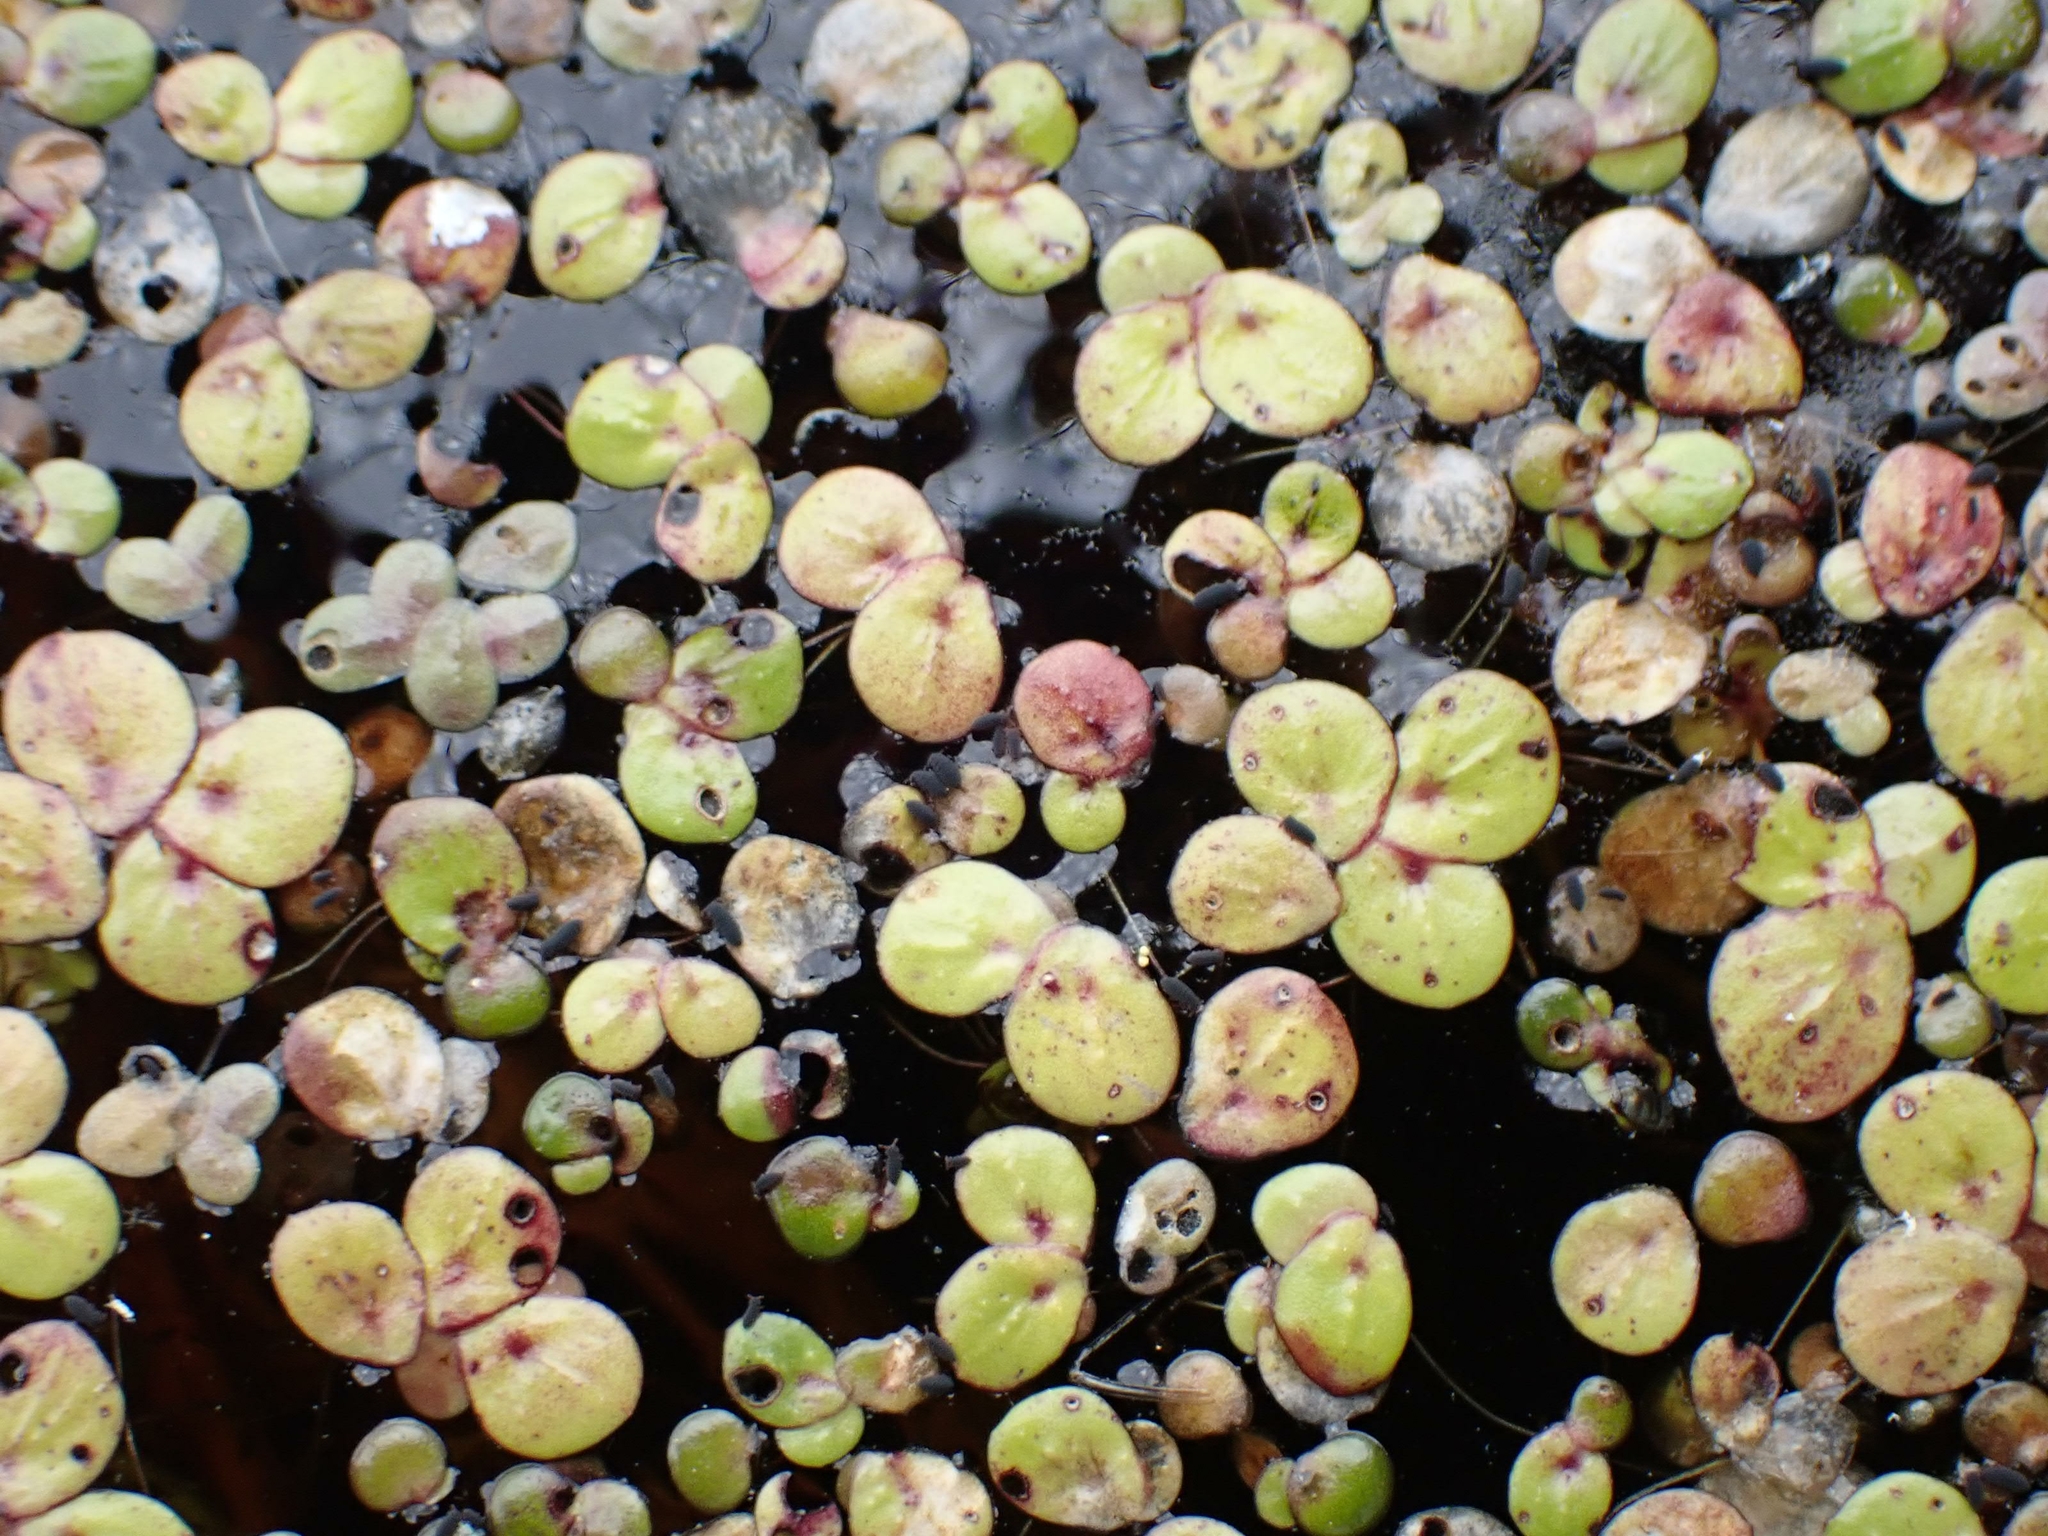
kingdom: Plantae
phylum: Tracheophyta
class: Liliopsida
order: Alismatales
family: Araceae
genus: Spirodela
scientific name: Spirodela polyrhiza
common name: Great duckweed
